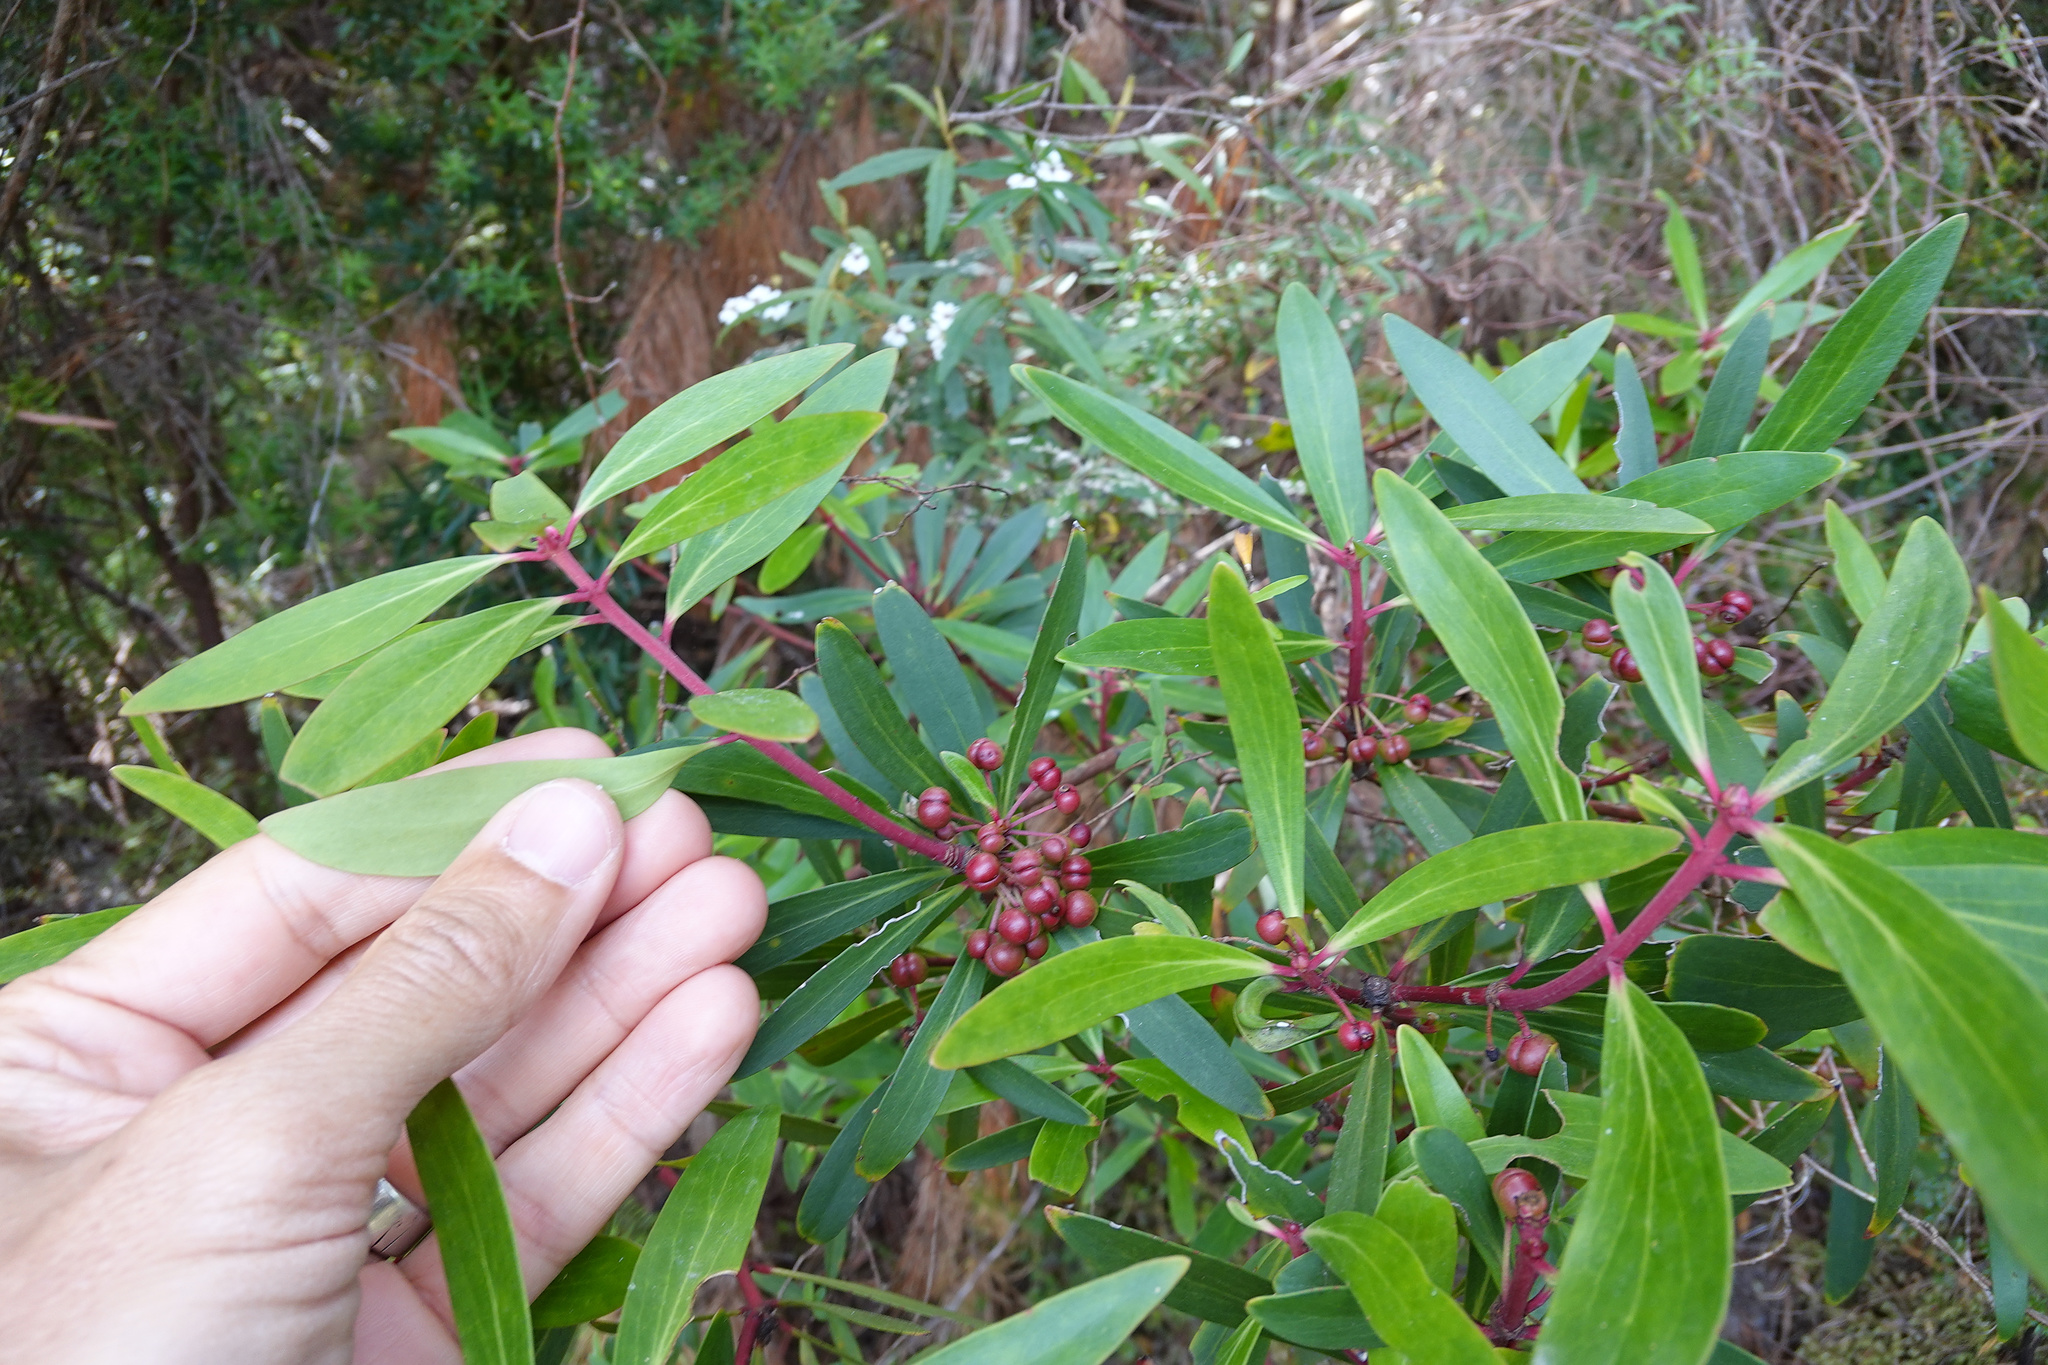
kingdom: Plantae
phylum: Tracheophyta
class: Magnoliopsida
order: Canellales
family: Winteraceae
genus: Drimys
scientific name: Drimys aromatica
